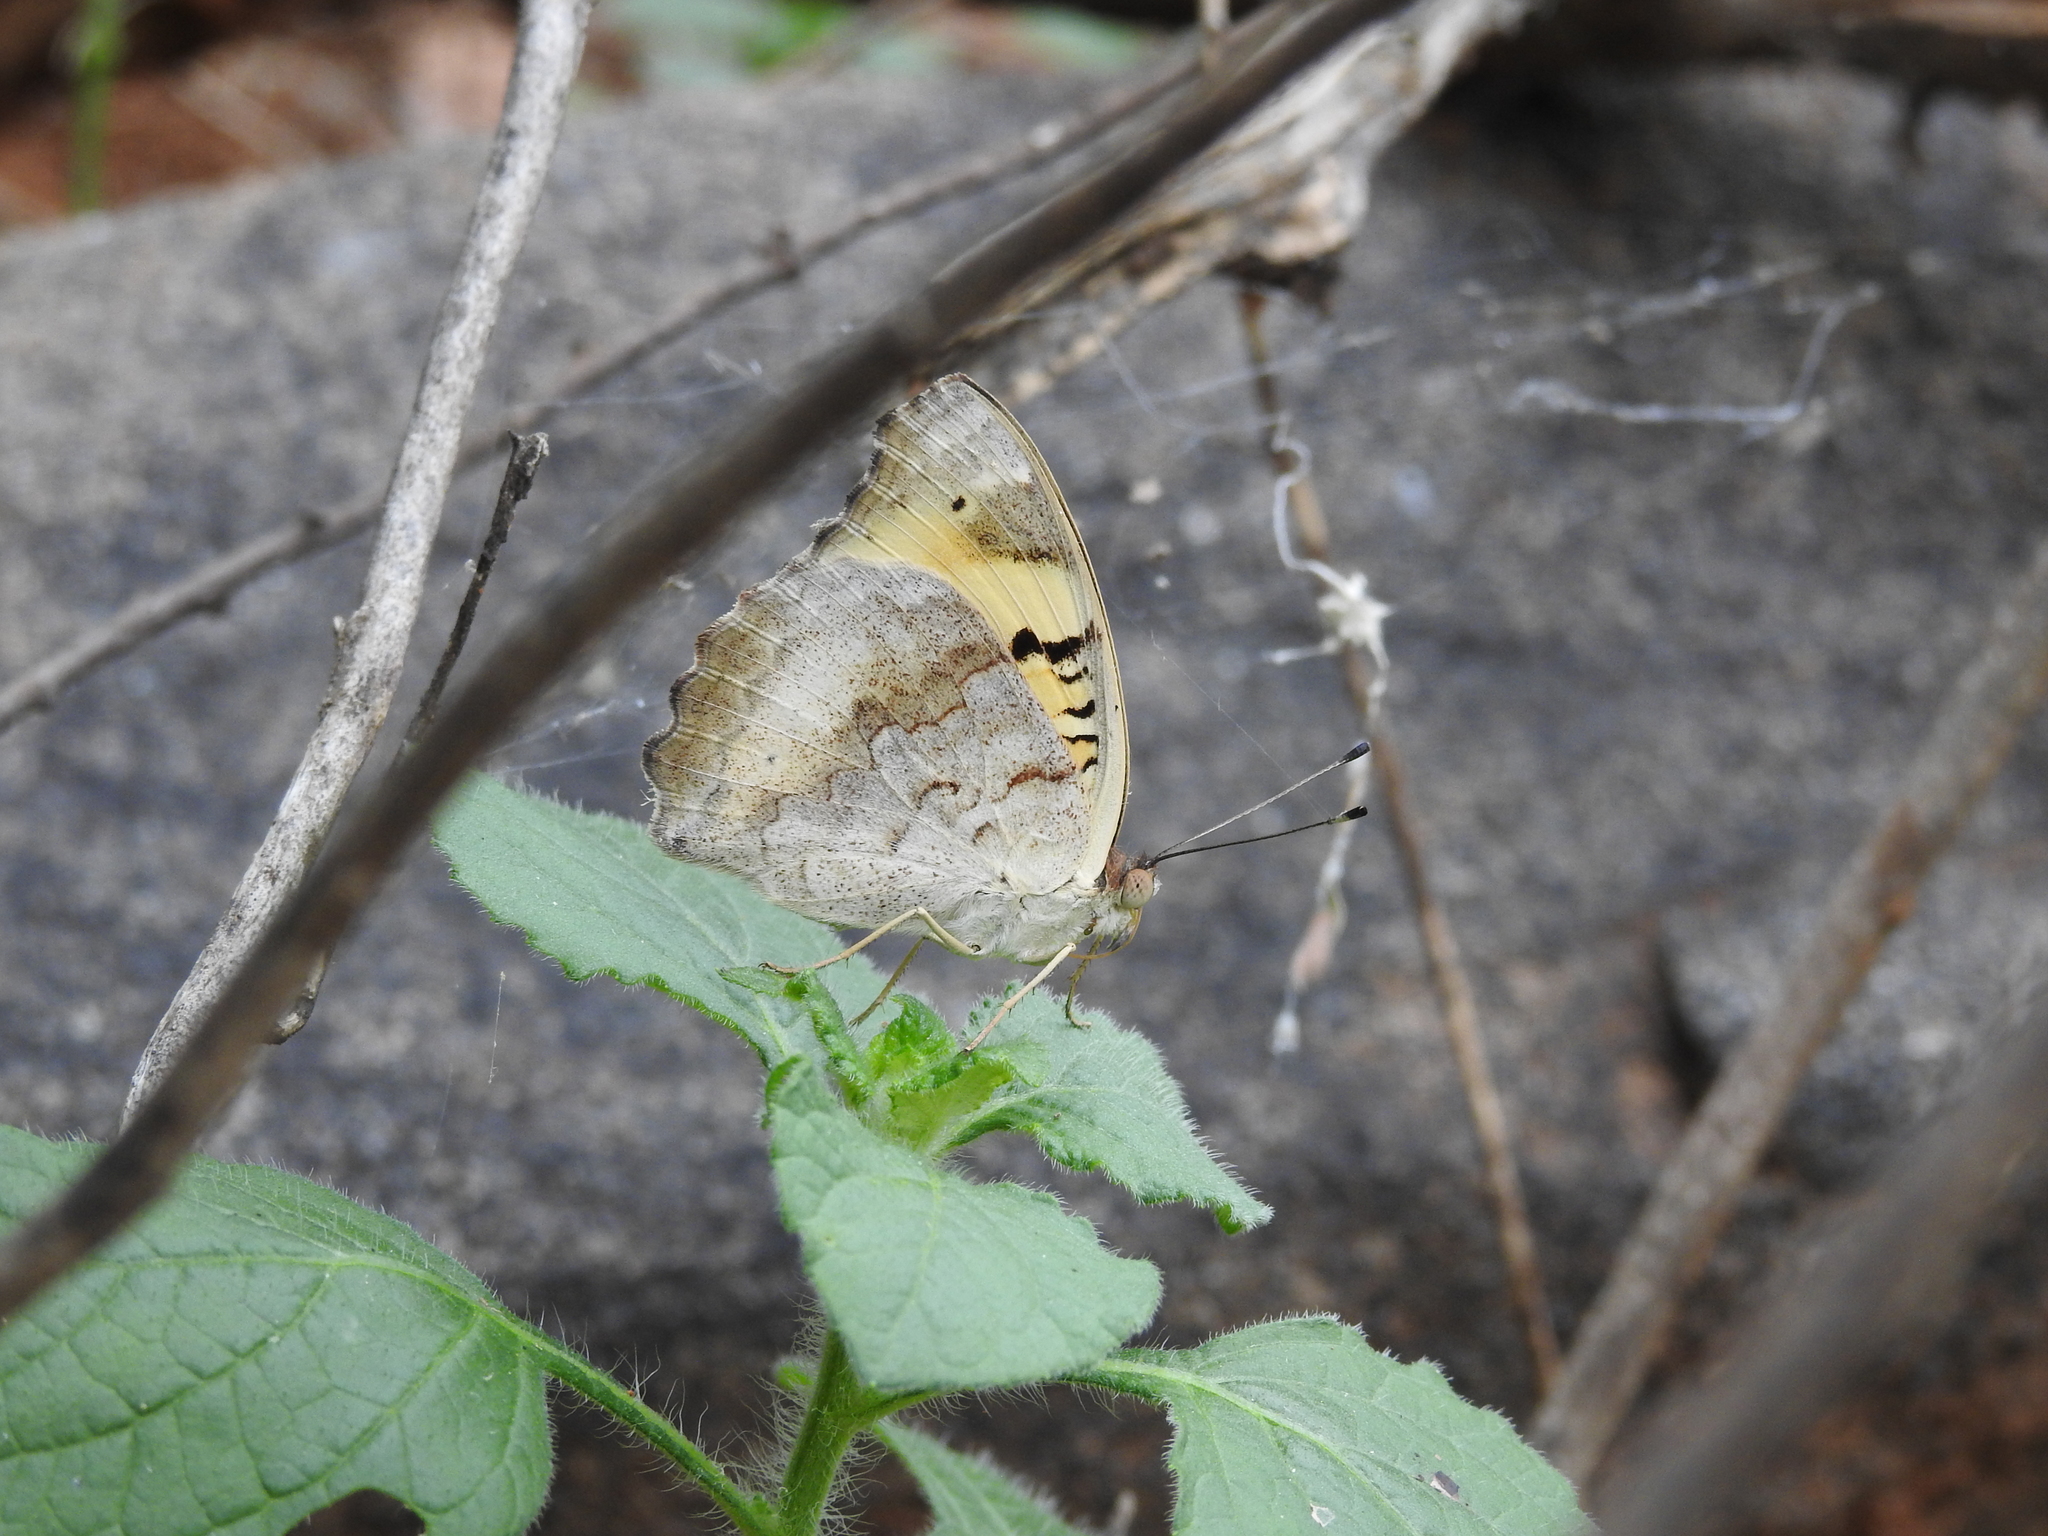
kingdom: Animalia
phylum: Arthropoda
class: Insecta
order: Lepidoptera
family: Nymphalidae
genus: Junonia
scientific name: Junonia hierta
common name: Yellow pansy
